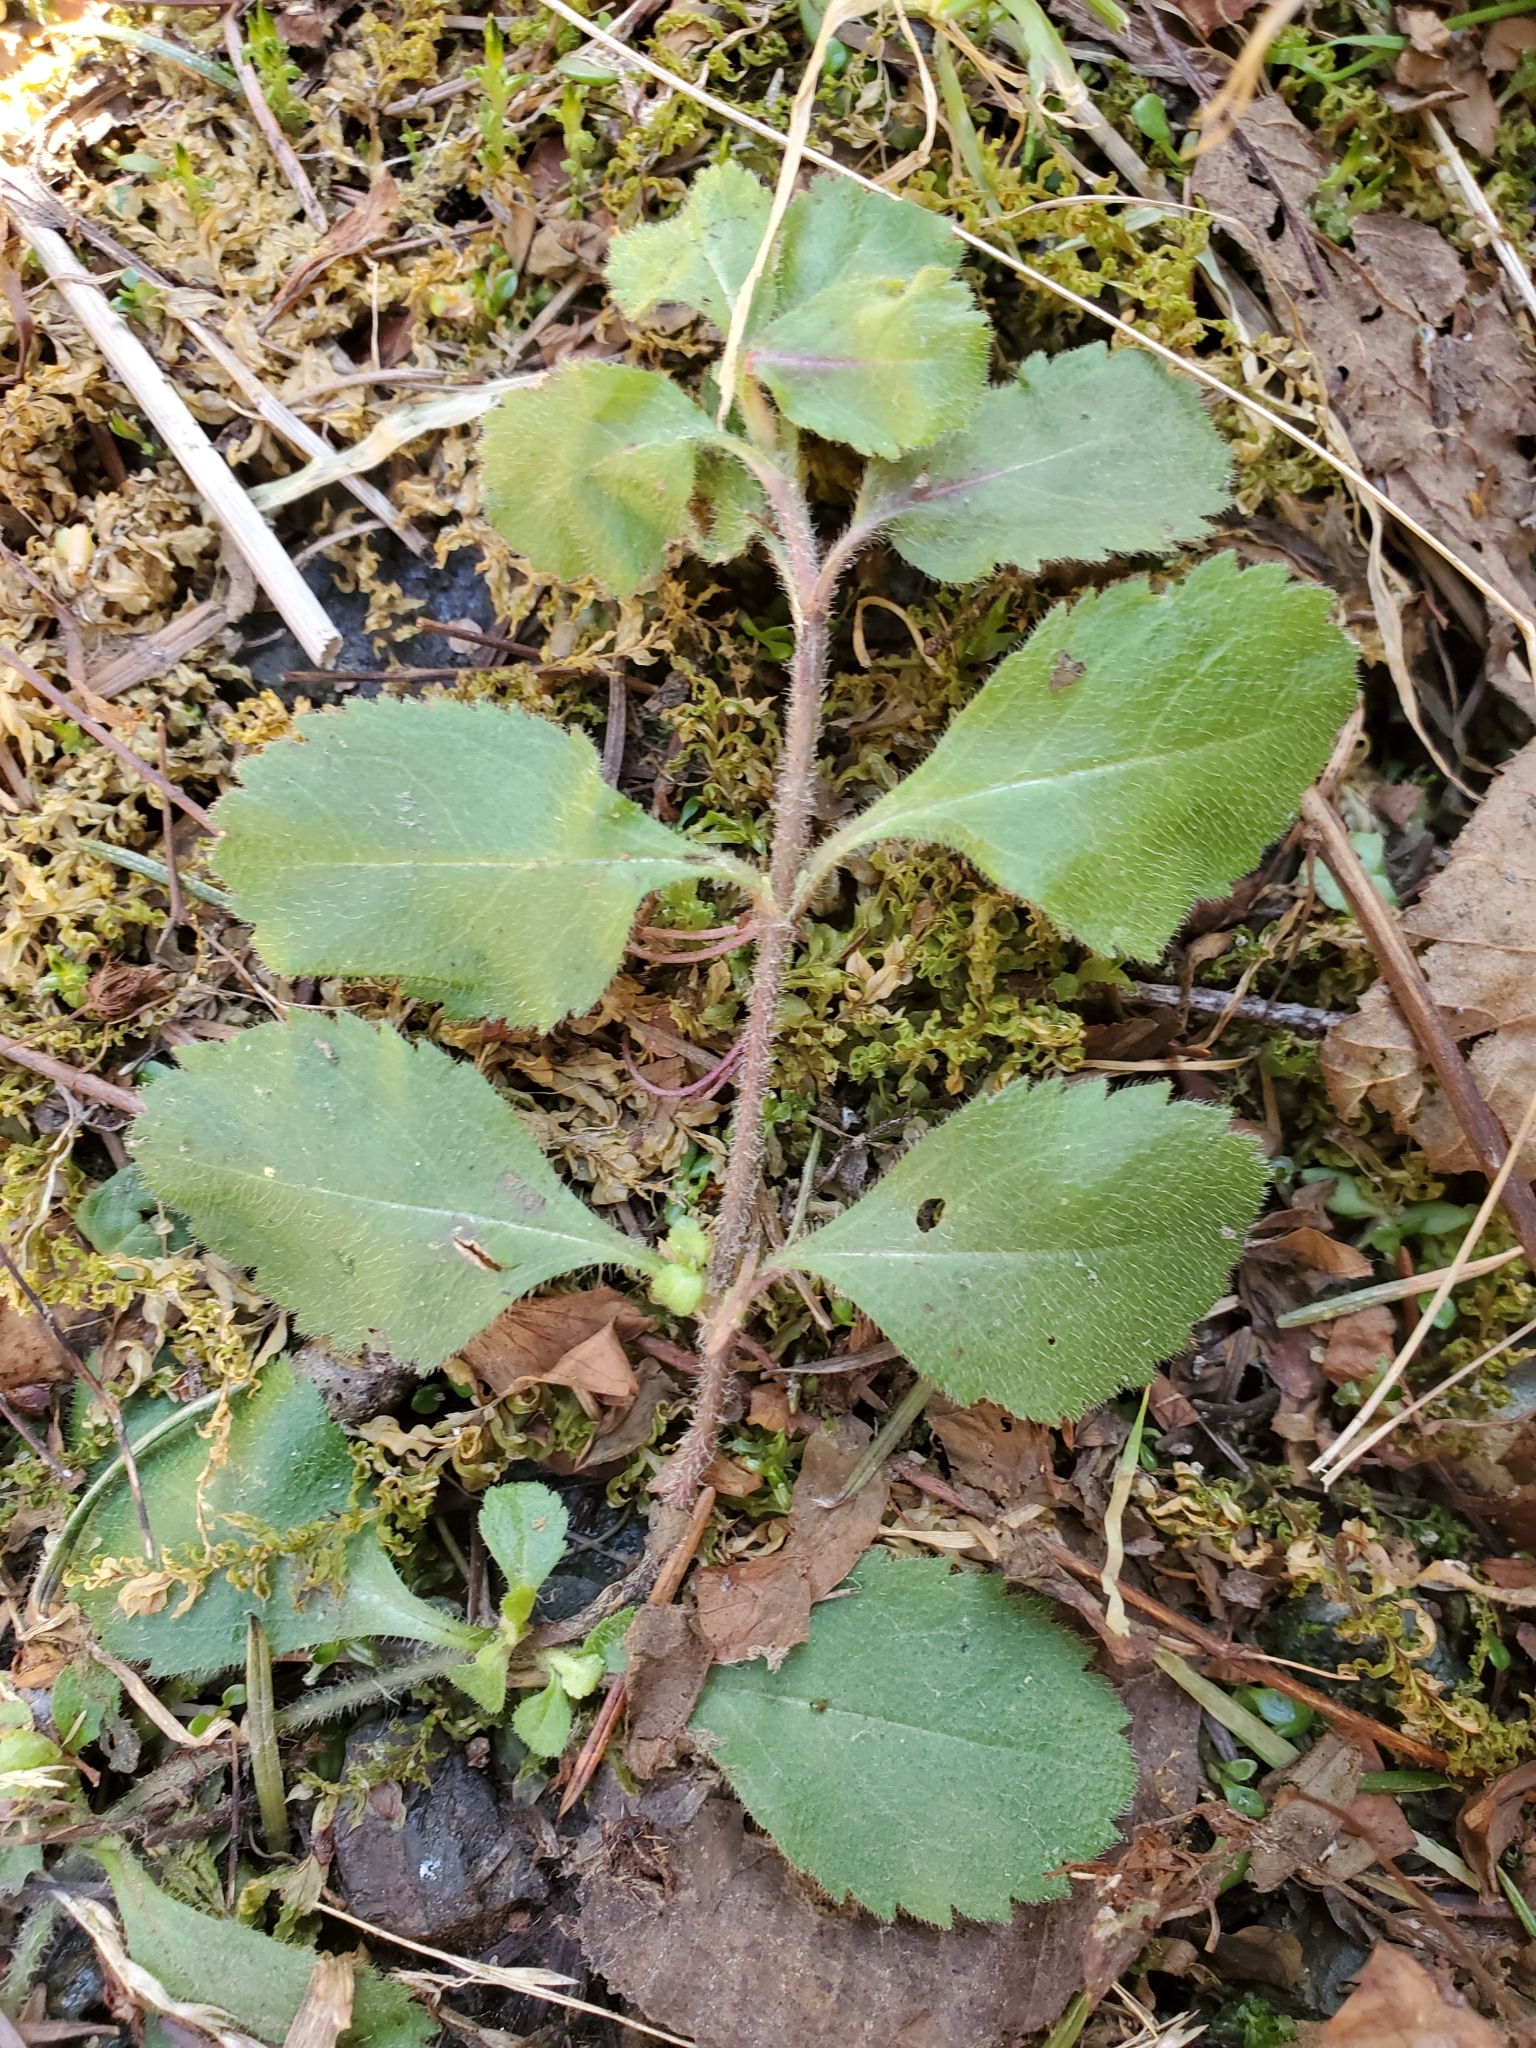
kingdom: Plantae
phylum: Tracheophyta
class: Magnoliopsida
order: Lamiales
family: Plantaginaceae
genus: Veronica
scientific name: Veronica officinalis
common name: Common speedwell
